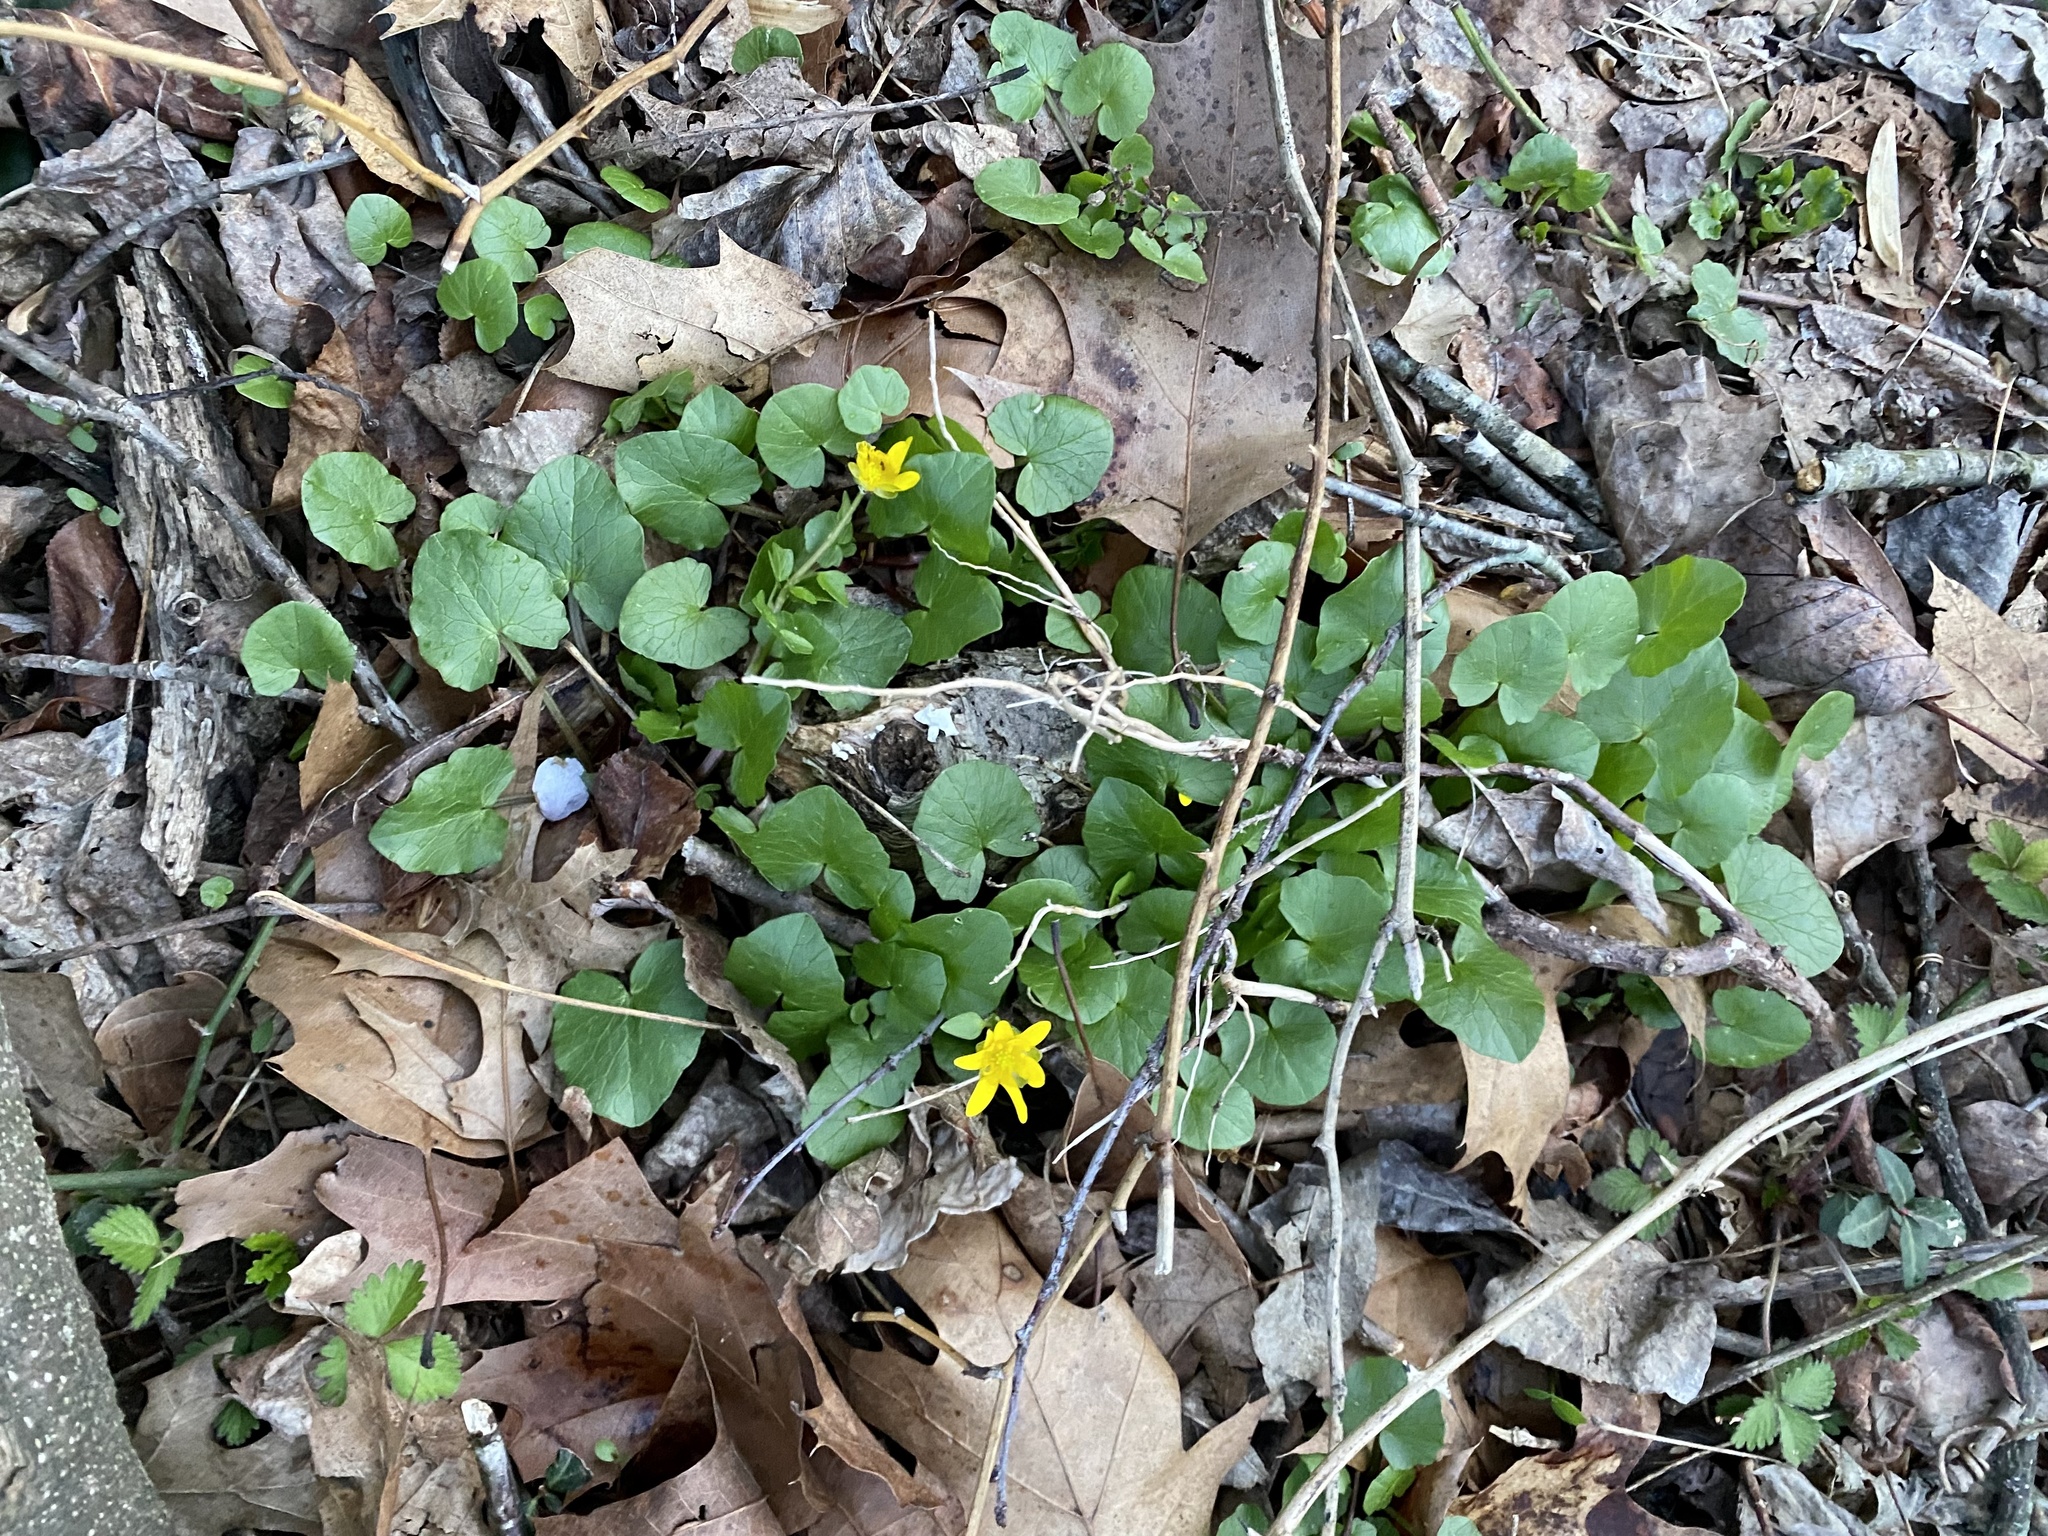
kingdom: Plantae
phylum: Tracheophyta
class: Magnoliopsida
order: Ranunculales
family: Ranunculaceae
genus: Ficaria
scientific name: Ficaria verna
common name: Lesser celandine
